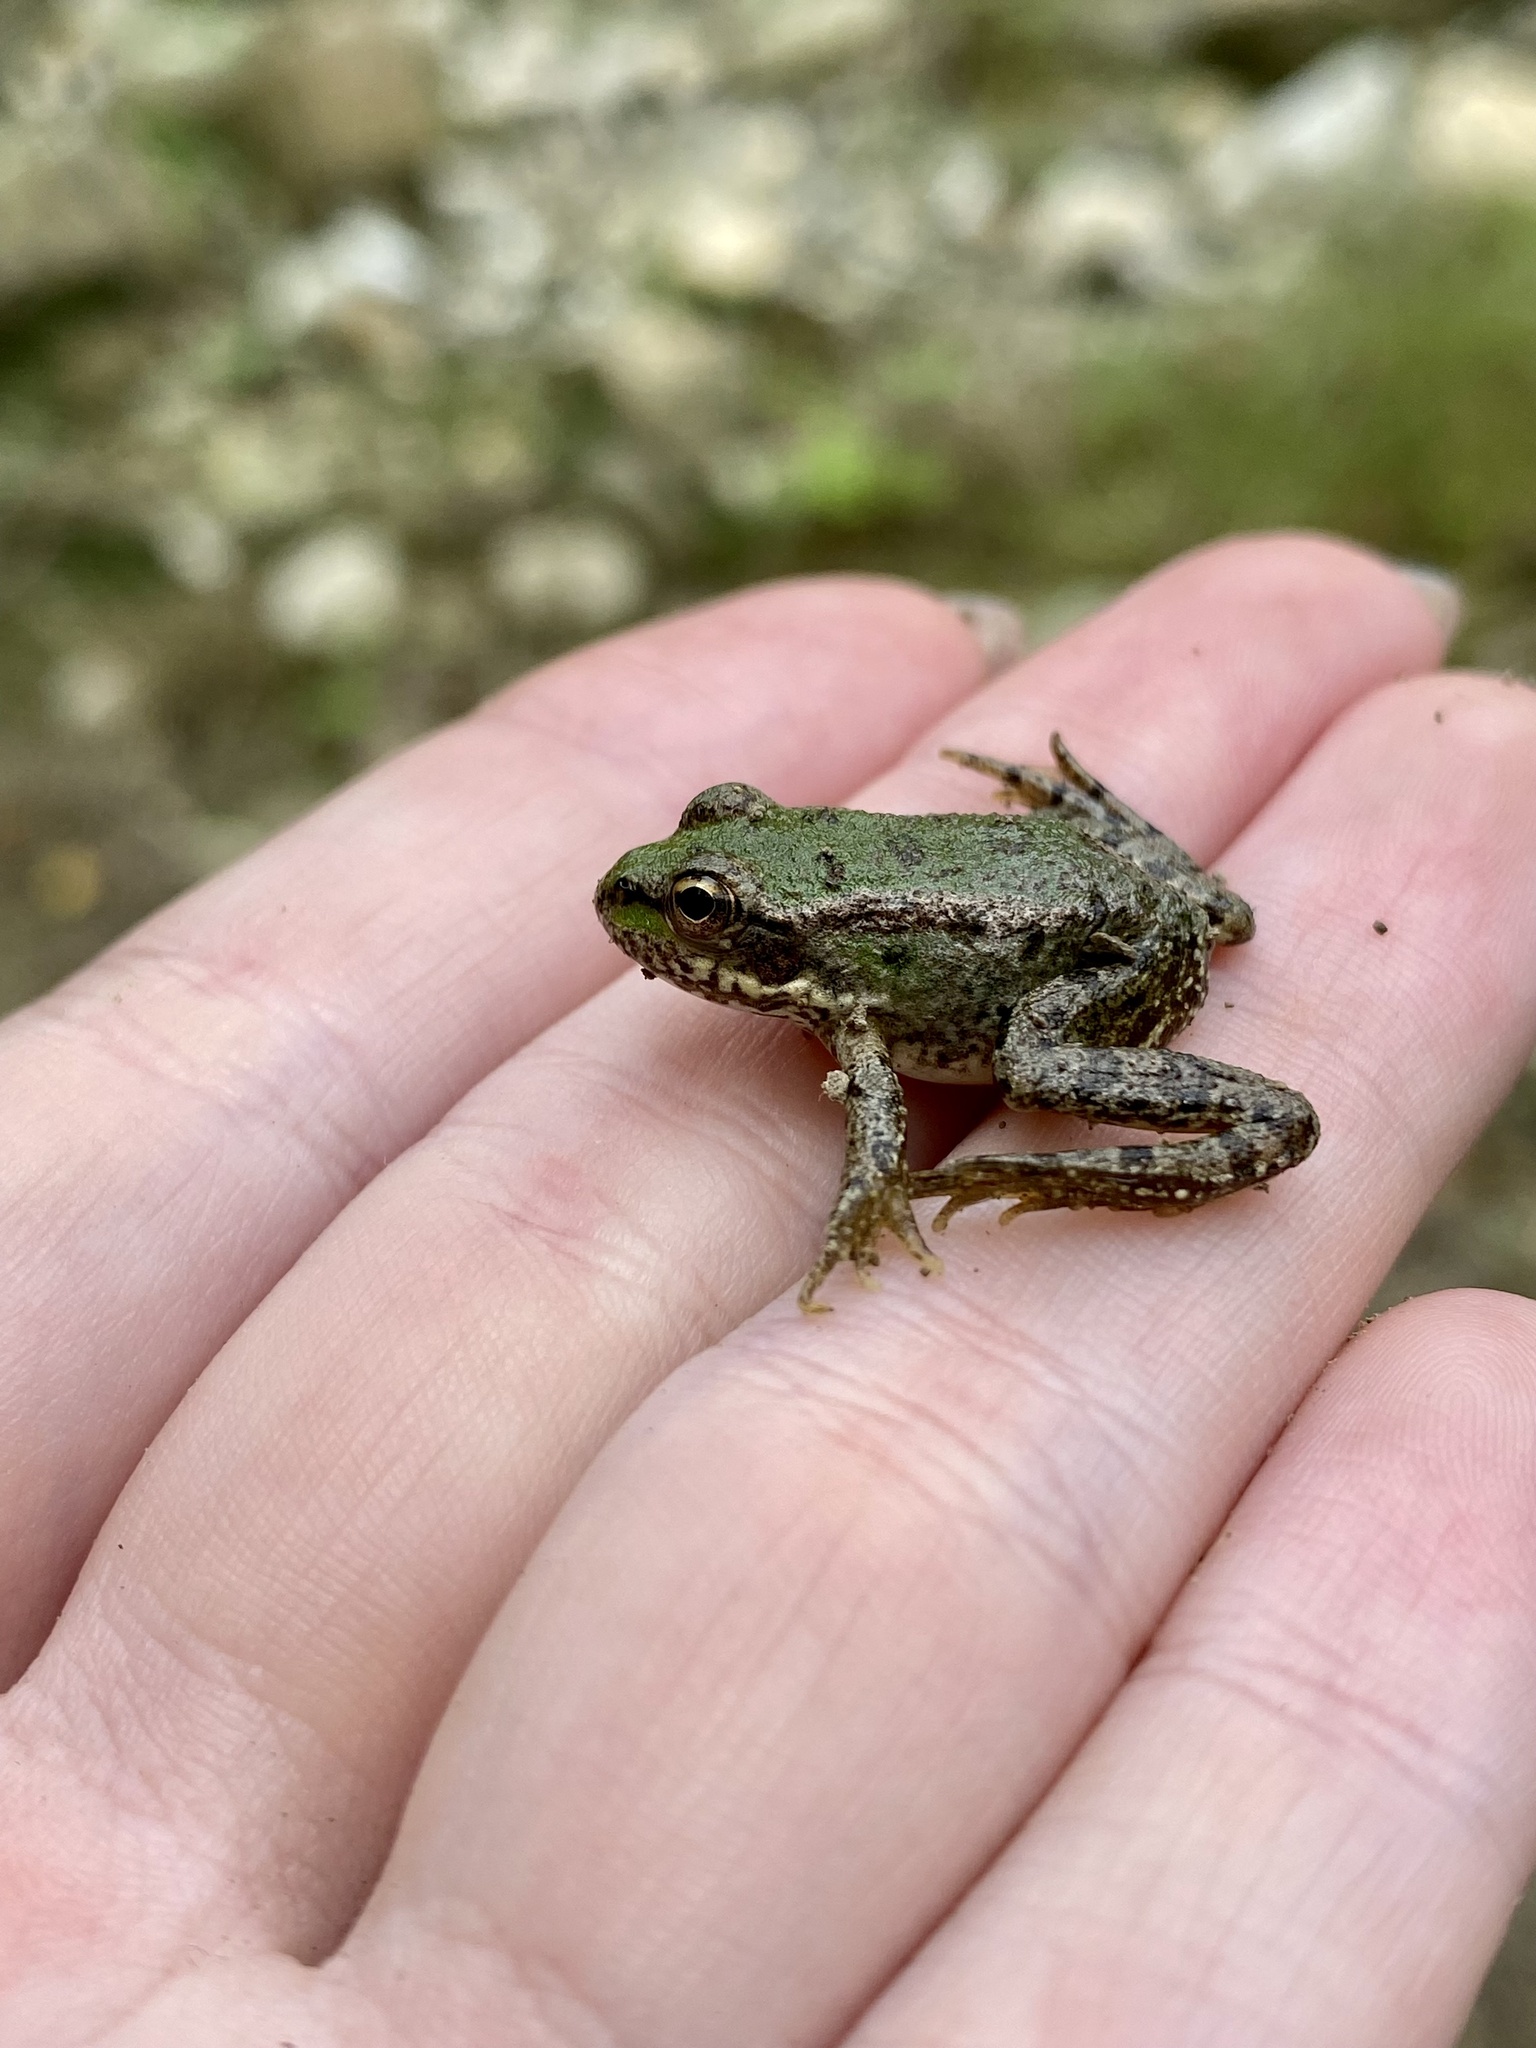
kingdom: Animalia
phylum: Chordata
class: Amphibia
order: Anura
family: Ranidae
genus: Pelophylax
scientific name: Pelophylax ridibundus
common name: Marsh frog
